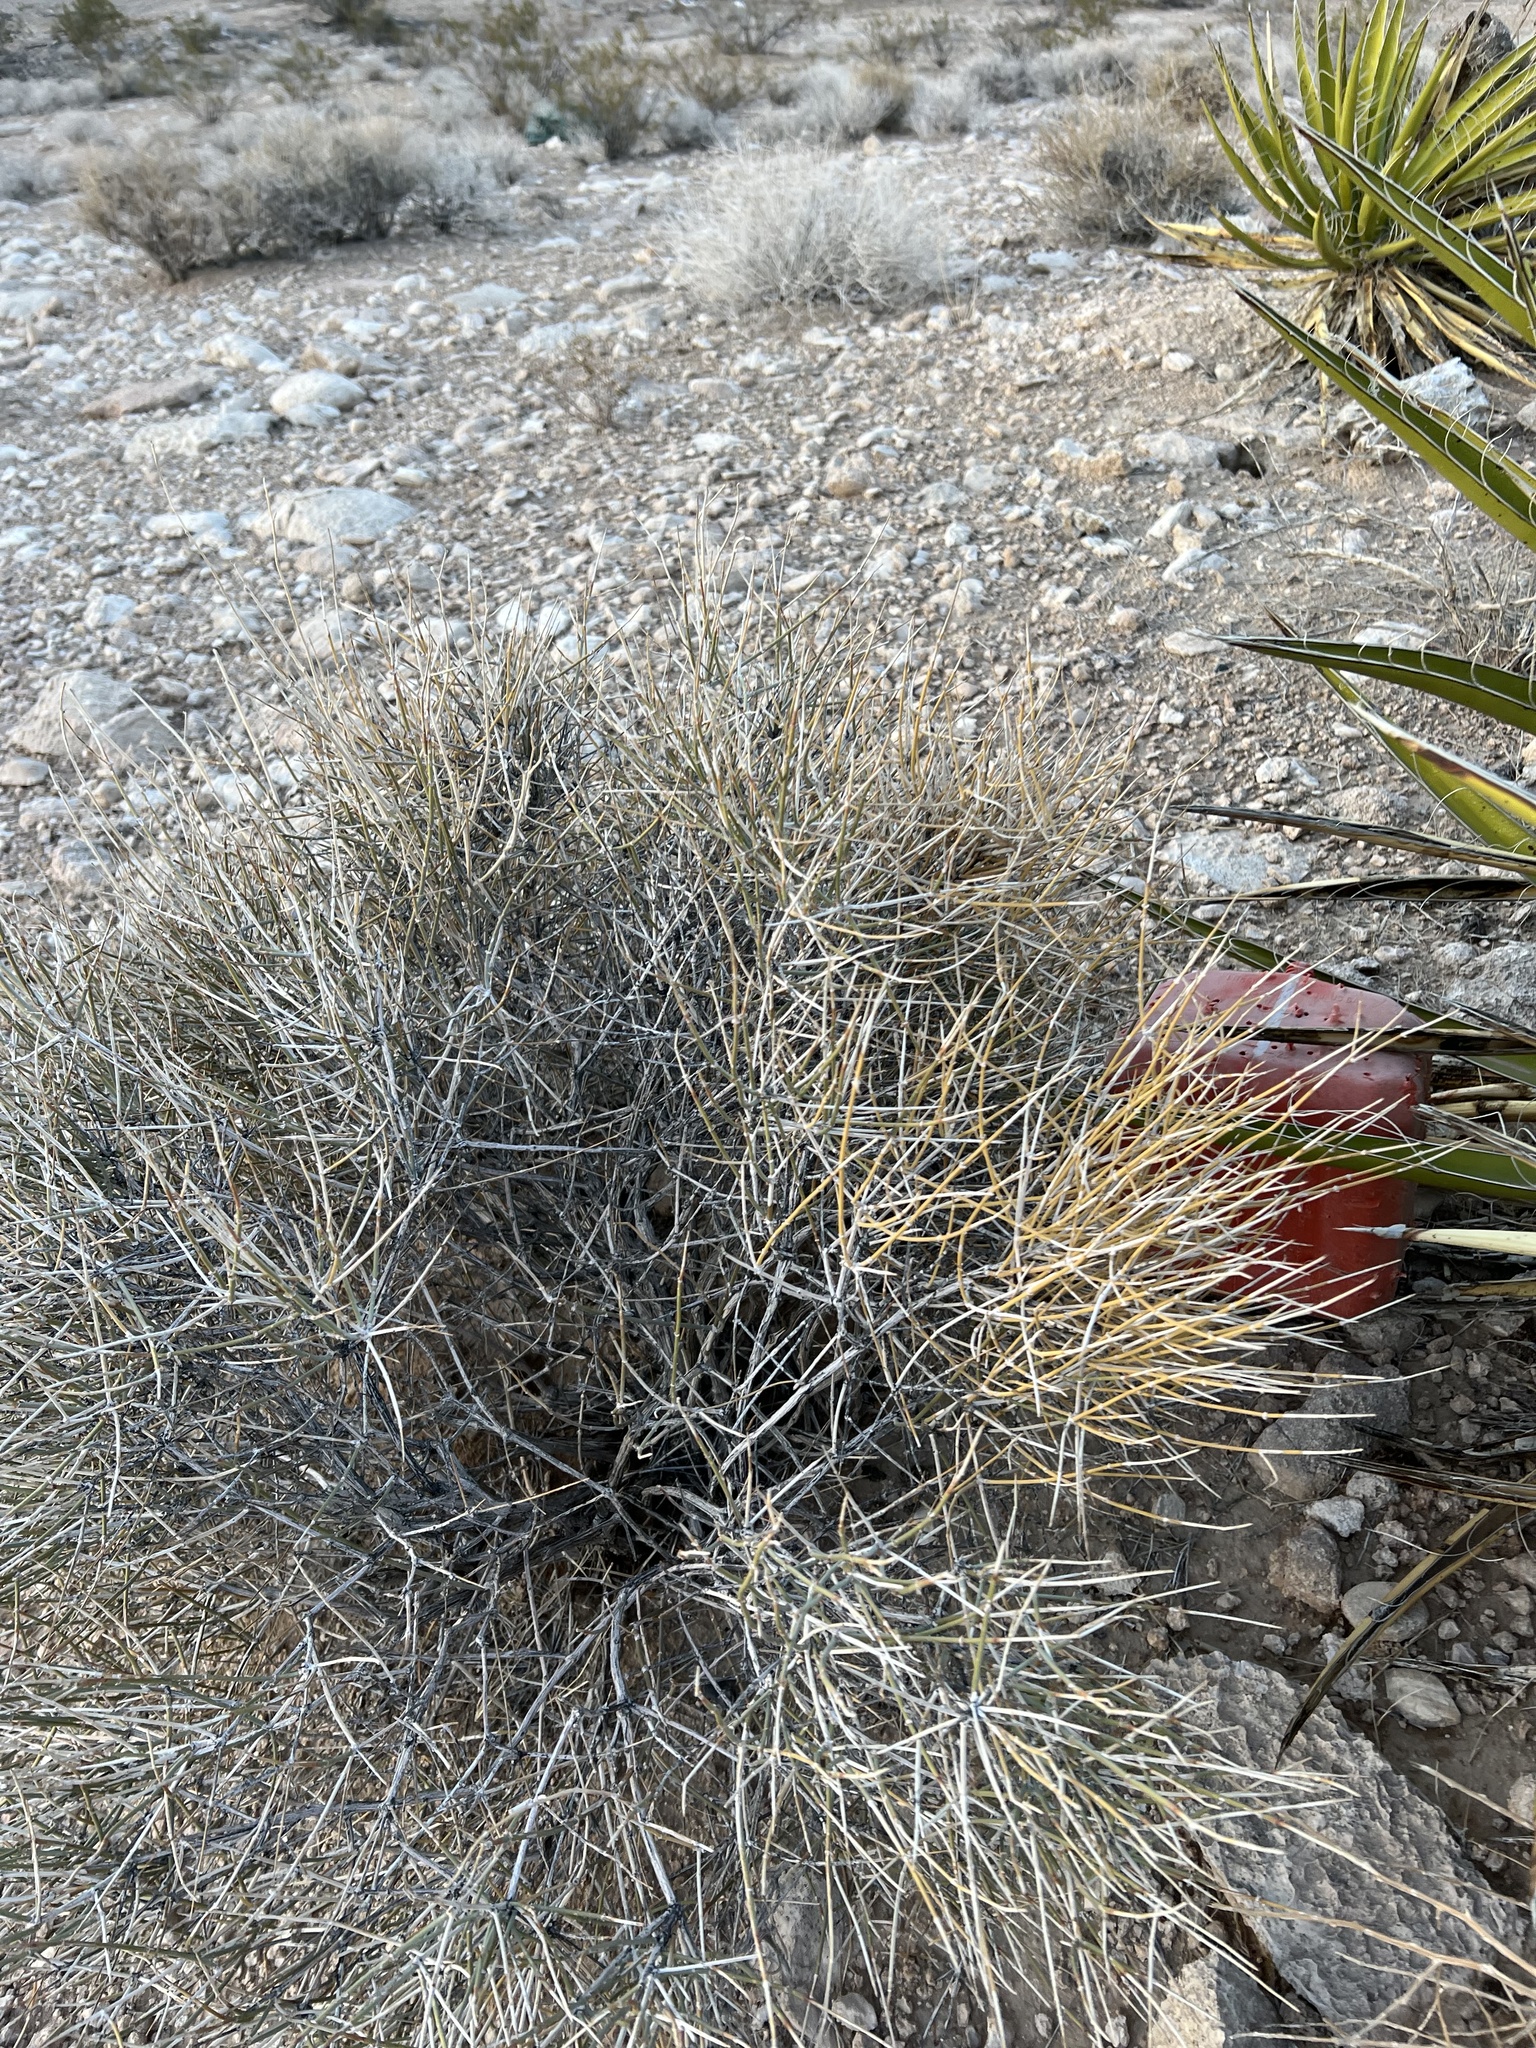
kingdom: Plantae
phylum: Tracheophyta
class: Gnetopsida
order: Ephedrales
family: Ephedraceae
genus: Ephedra
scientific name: Ephedra nevadensis
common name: Gray ephedra
